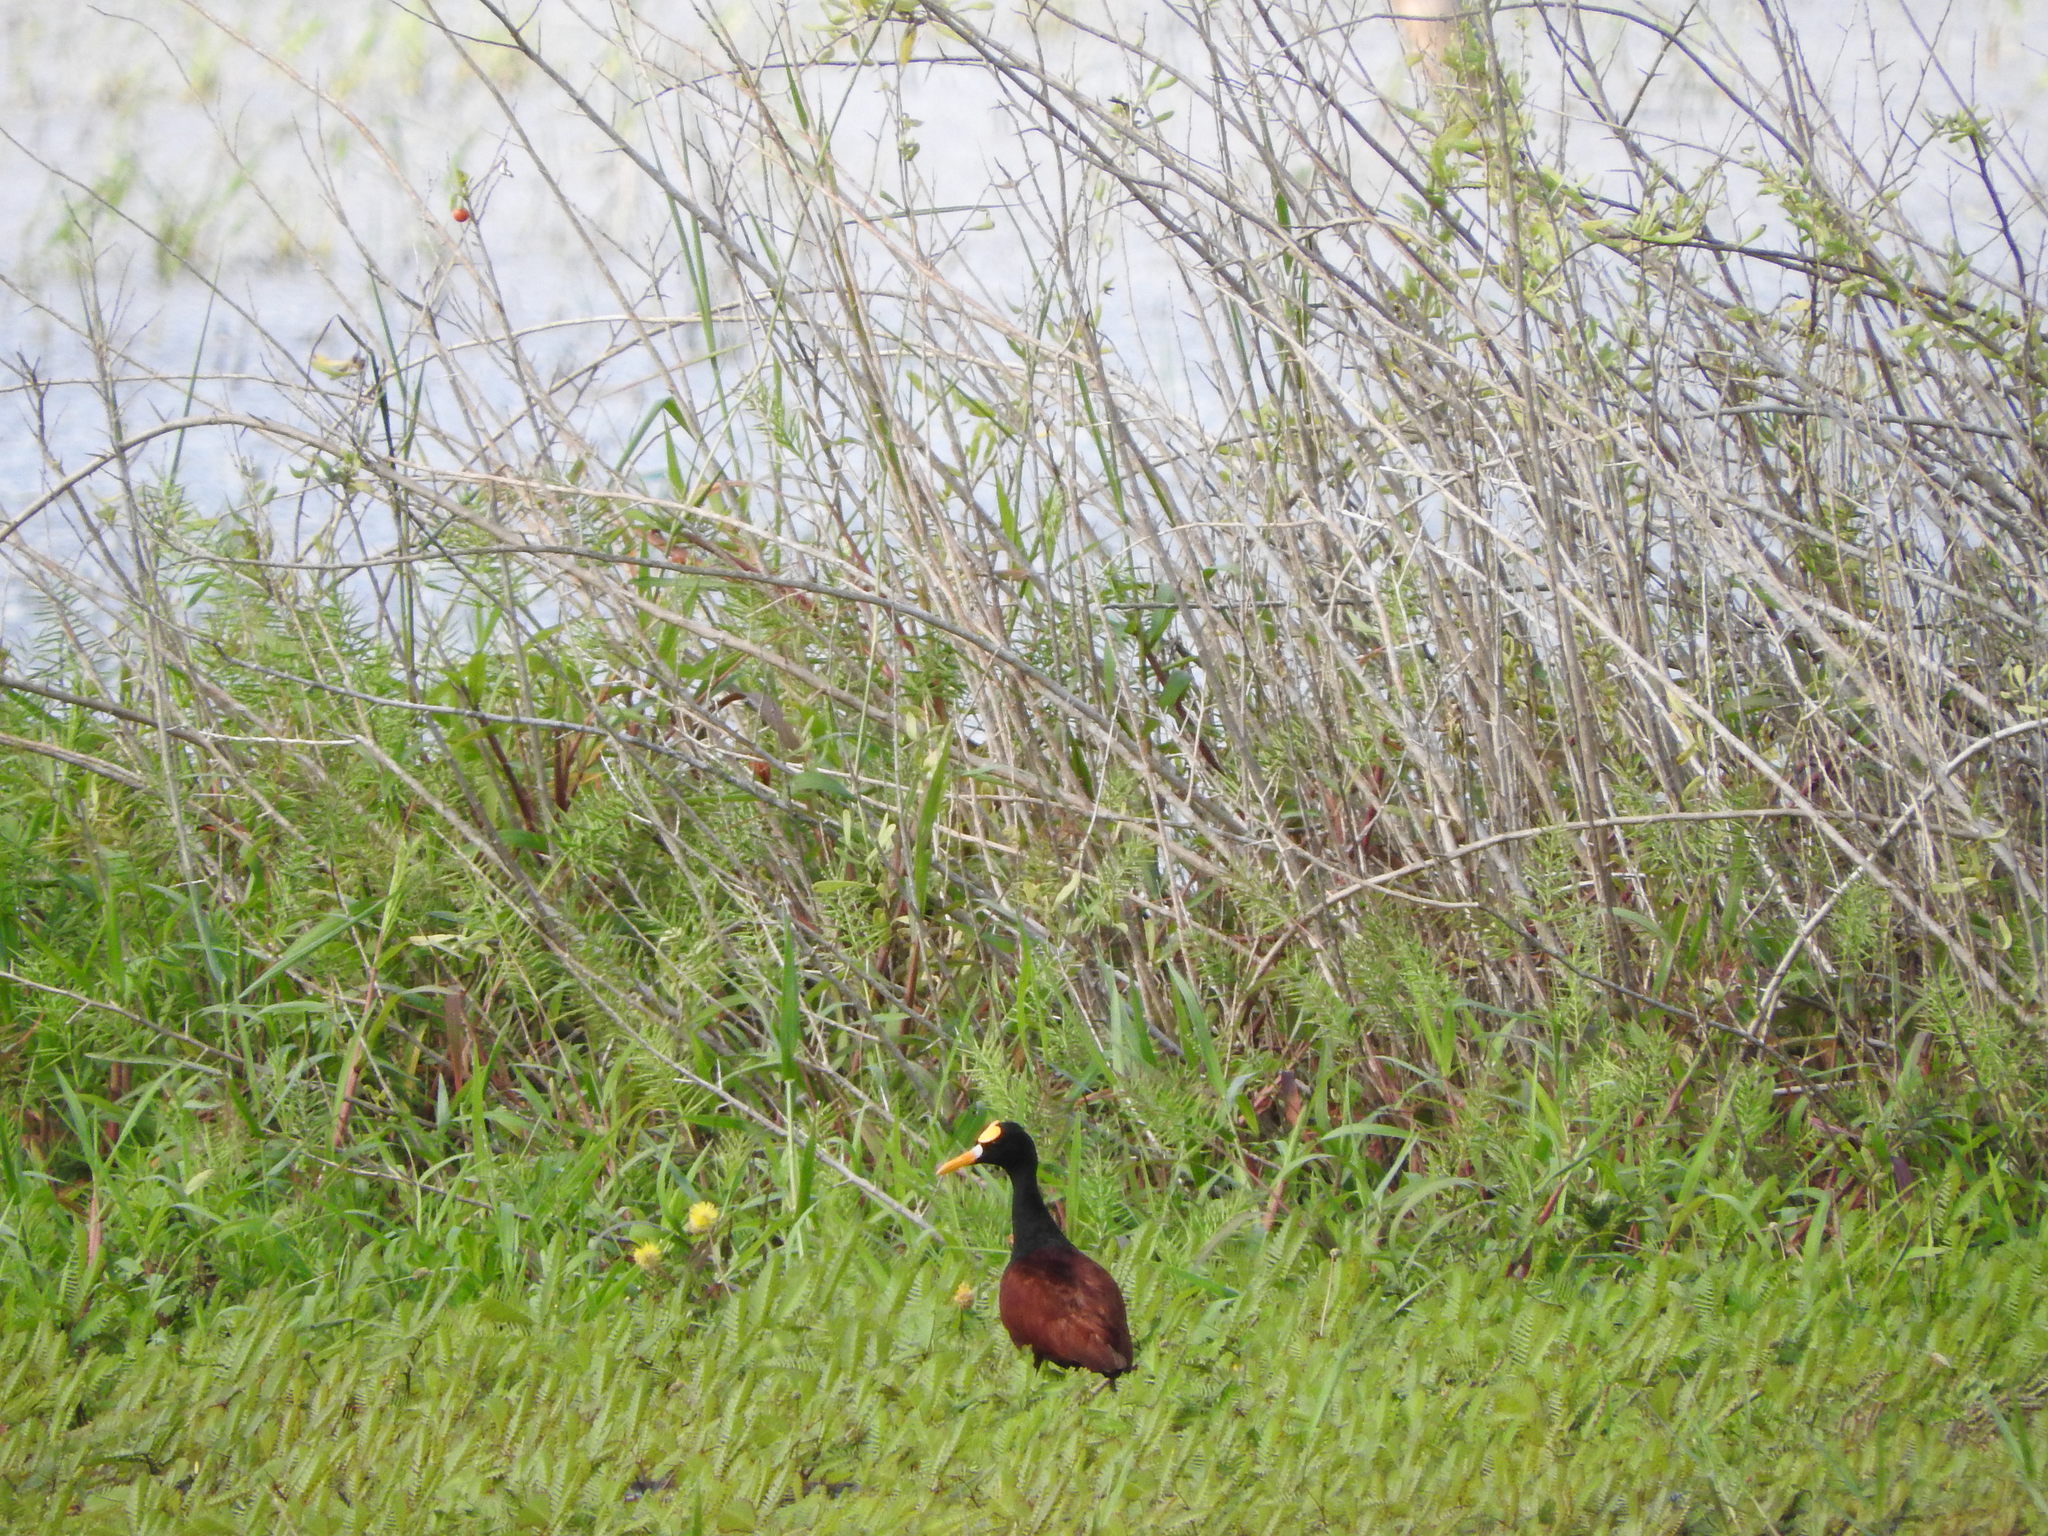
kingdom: Animalia
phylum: Chordata
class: Aves
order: Charadriiformes
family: Jacanidae
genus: Jacana
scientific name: Jacana spinosa
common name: Northern jacana
